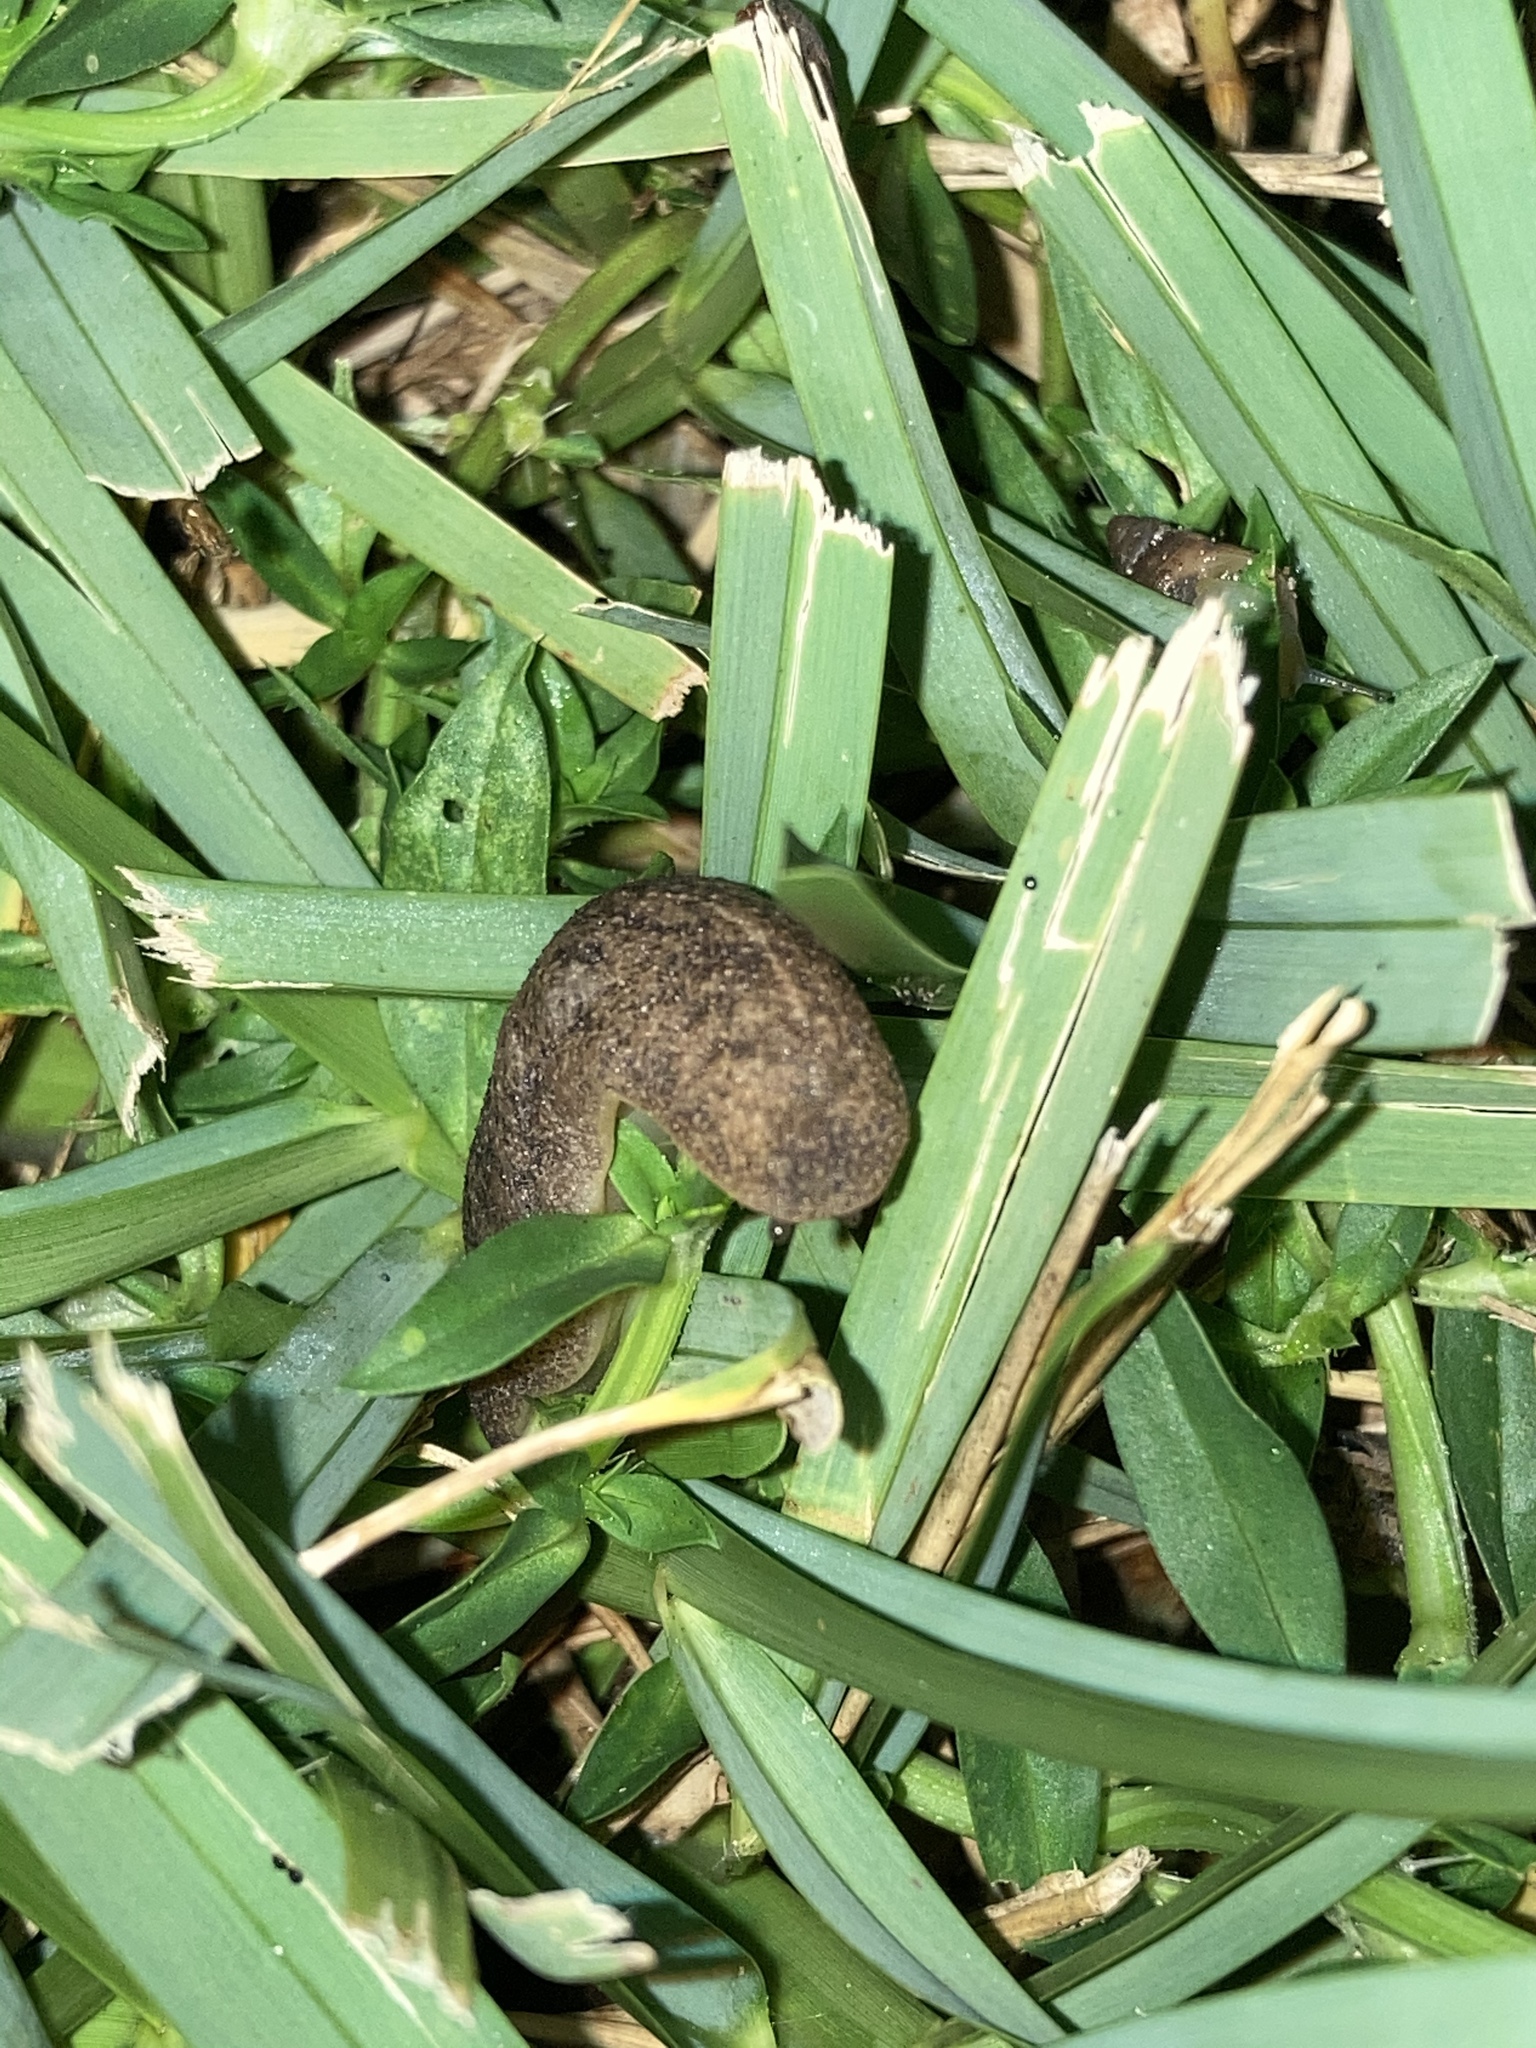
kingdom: Animalia
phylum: Mollusca
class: Gastropoda
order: Systellommatophora
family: Veronicellidae
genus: Leidyula
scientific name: Leidyula floridana
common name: Florida leatherleaf
